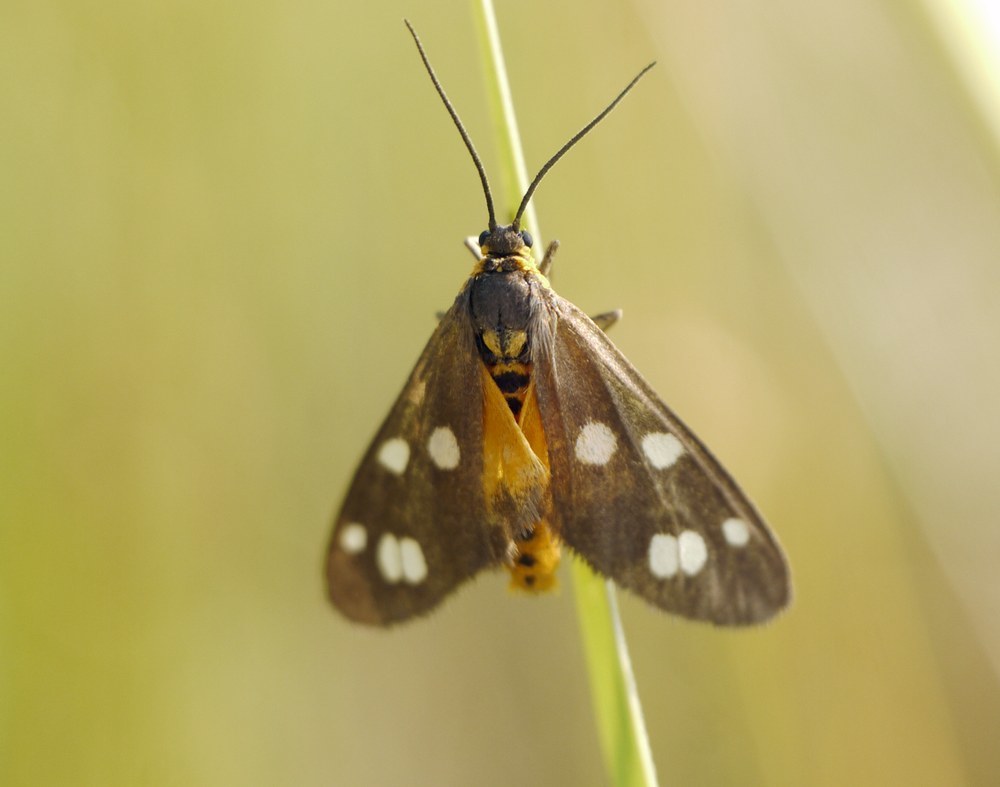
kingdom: Animalia
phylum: Arthropoda
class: Insecta
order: Lepidoptera
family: Erebidae
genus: Dysauxes
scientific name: Dysauxes punctata
